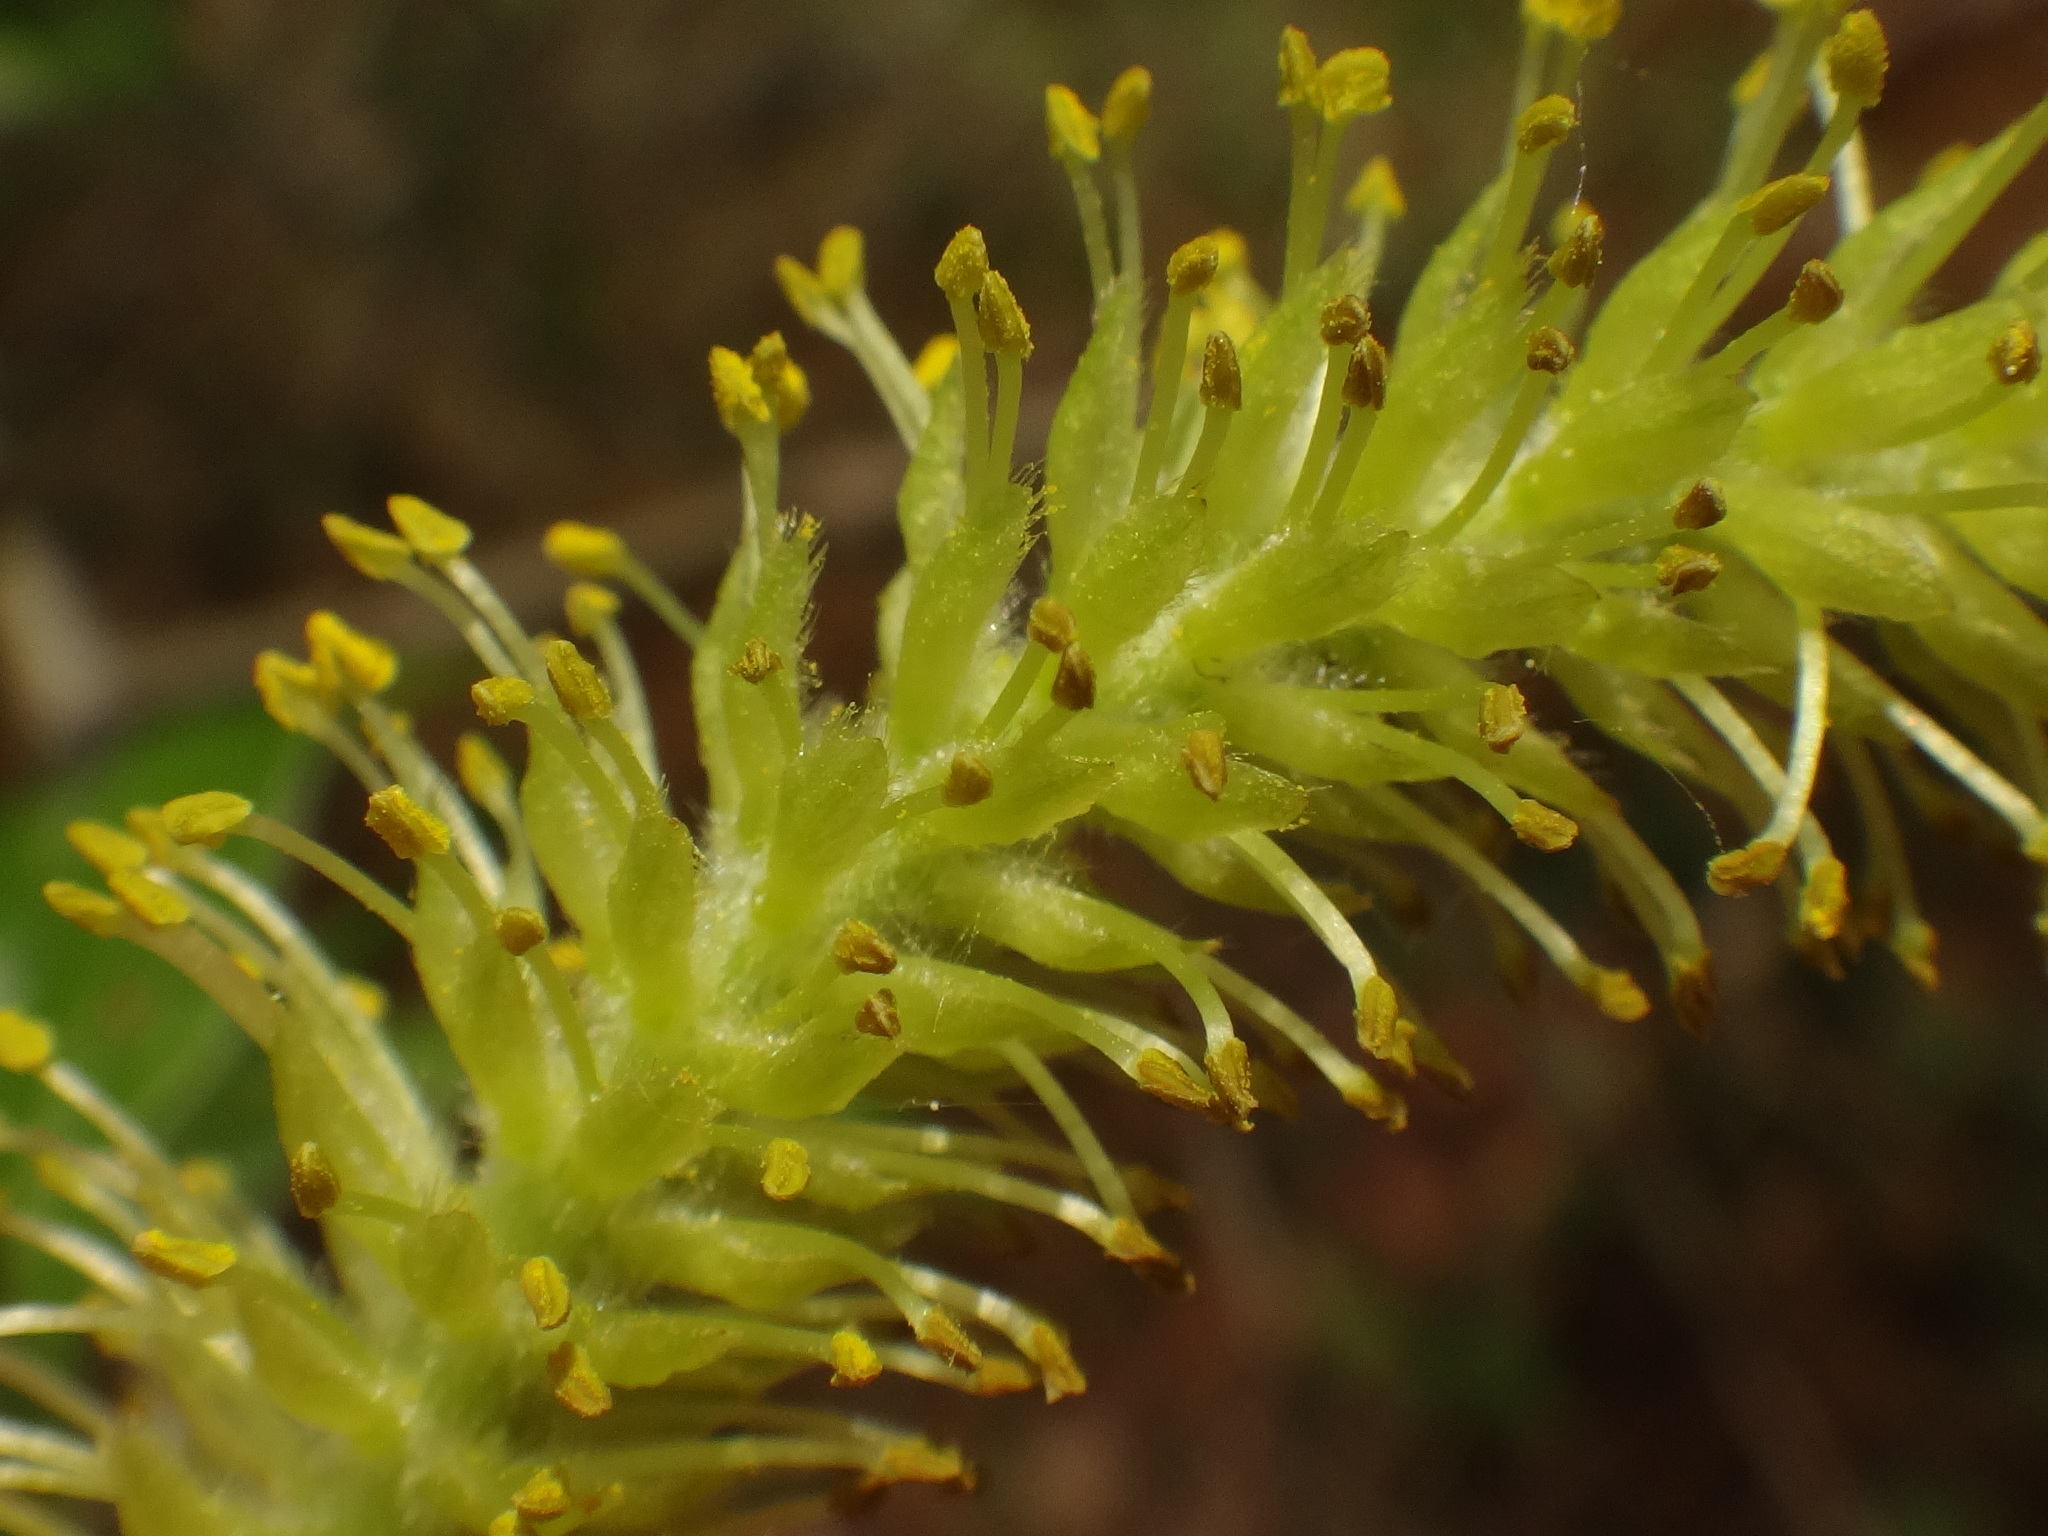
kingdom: Plantae
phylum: Tracheophyta
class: Magnoliopsida
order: Malpighiales
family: Salicaceae
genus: Salix
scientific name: Salix fragilis
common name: Crack willow
